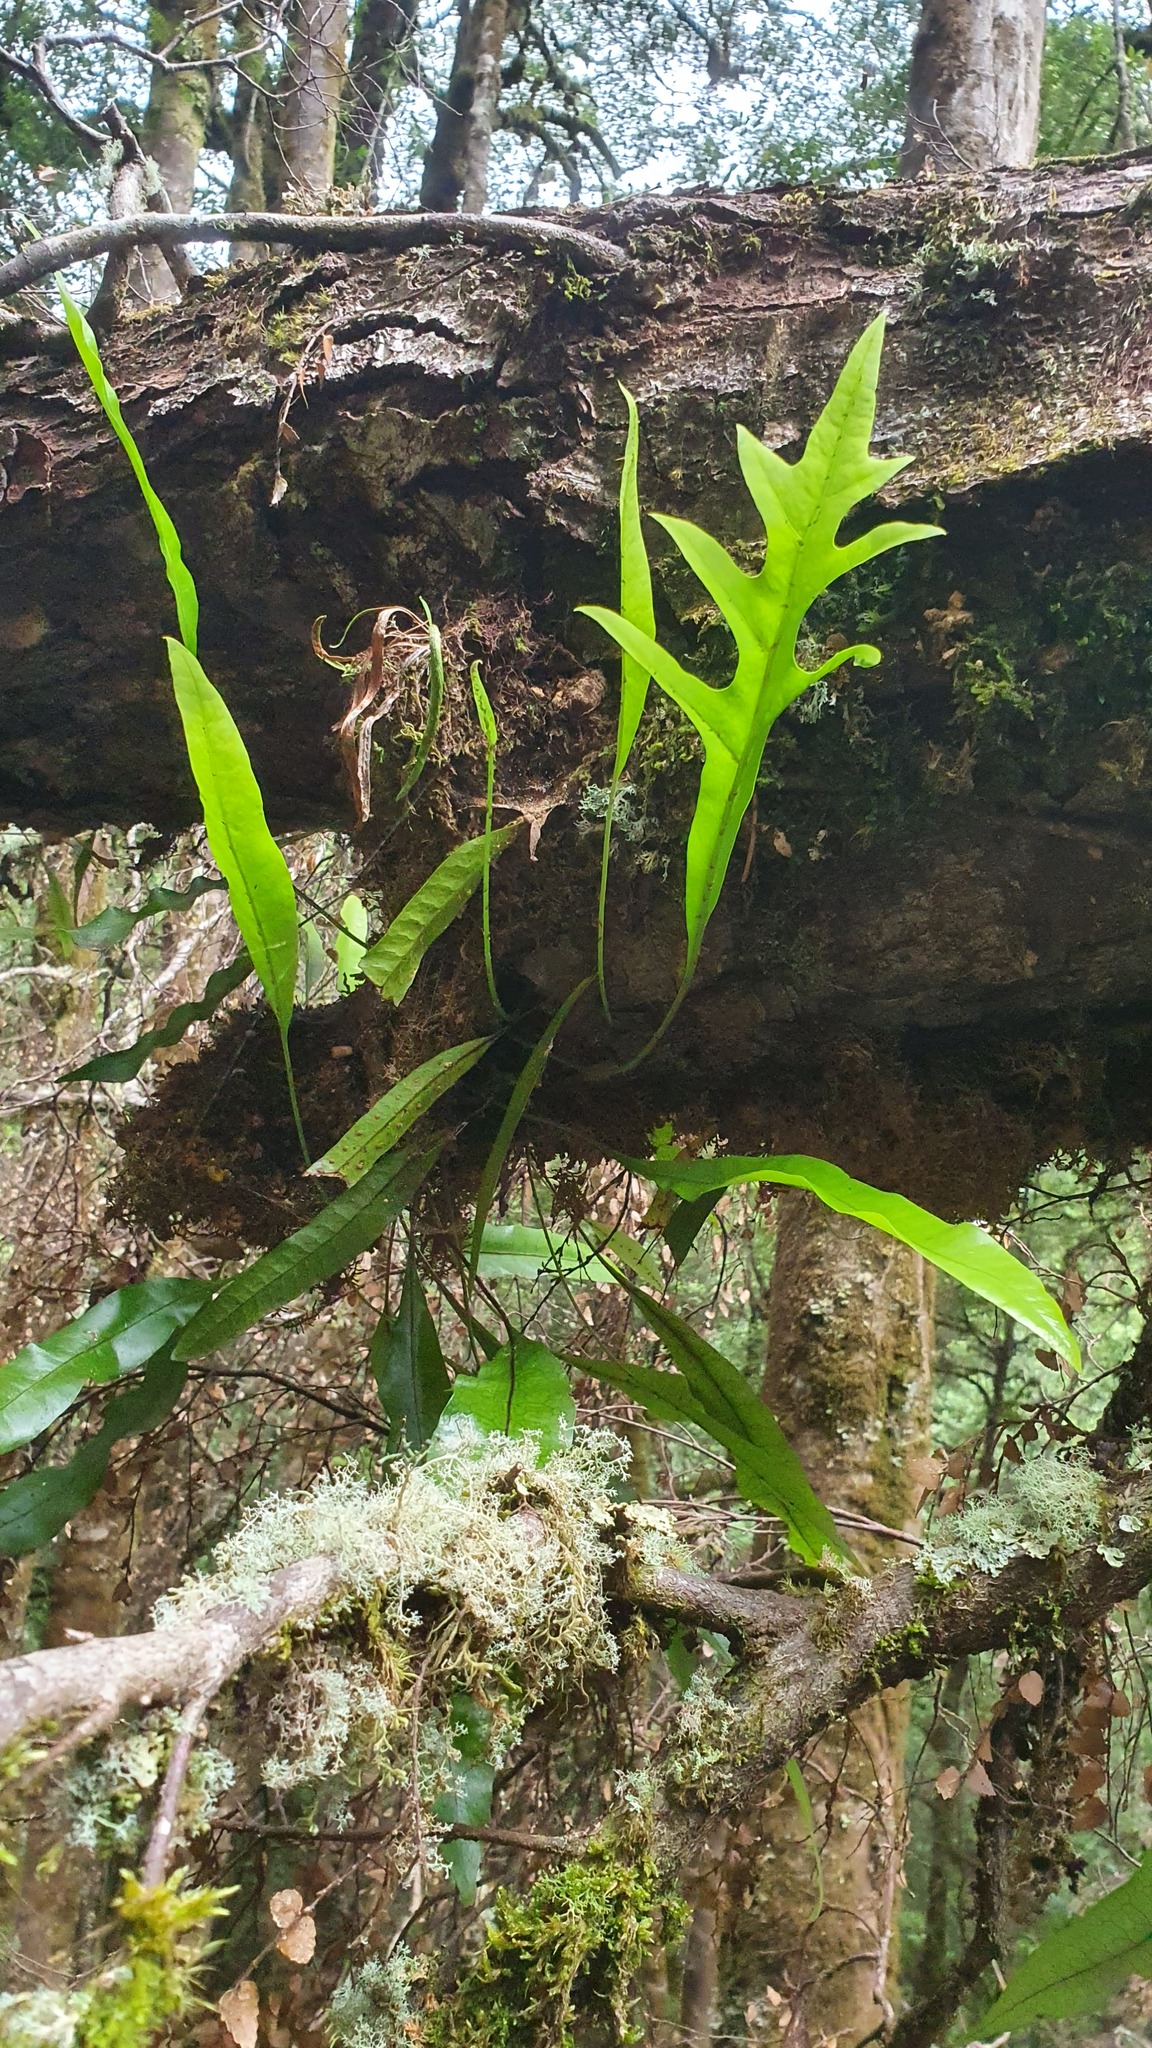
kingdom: Plantae
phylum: Tracheophyta
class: Polypodiopsida
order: Polypodiales
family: Polypodiaceae
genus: Lecanopteris
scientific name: Lecanopteris pustulata
